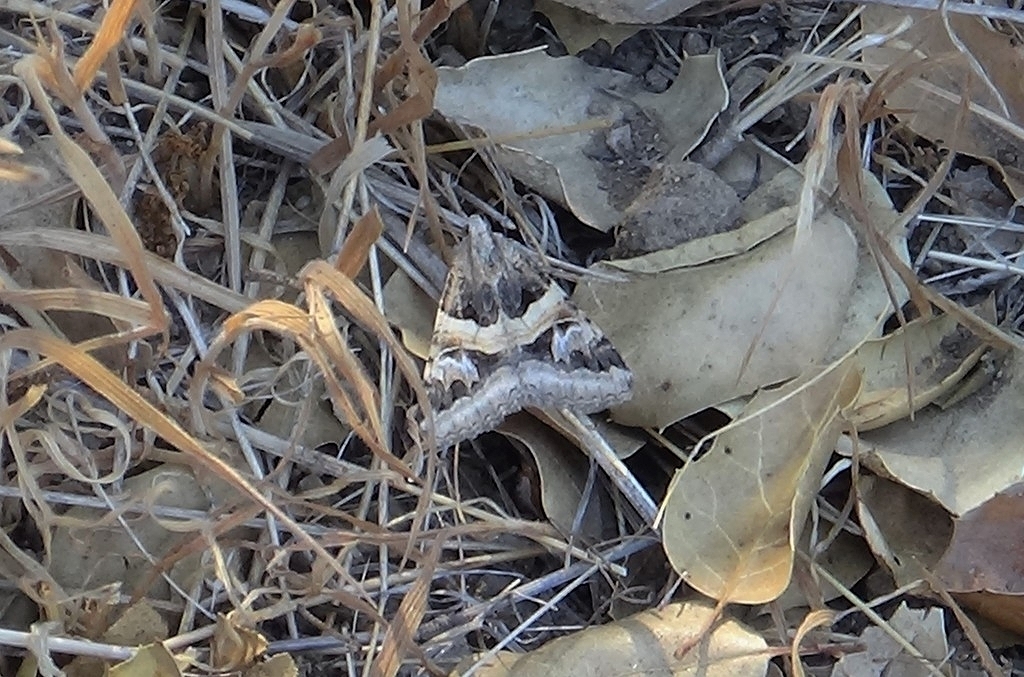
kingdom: Animalia
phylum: Arthropoda
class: Insecta
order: Lepidoptera
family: Erebidae
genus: Drasteria
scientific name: Drasteria divergens
